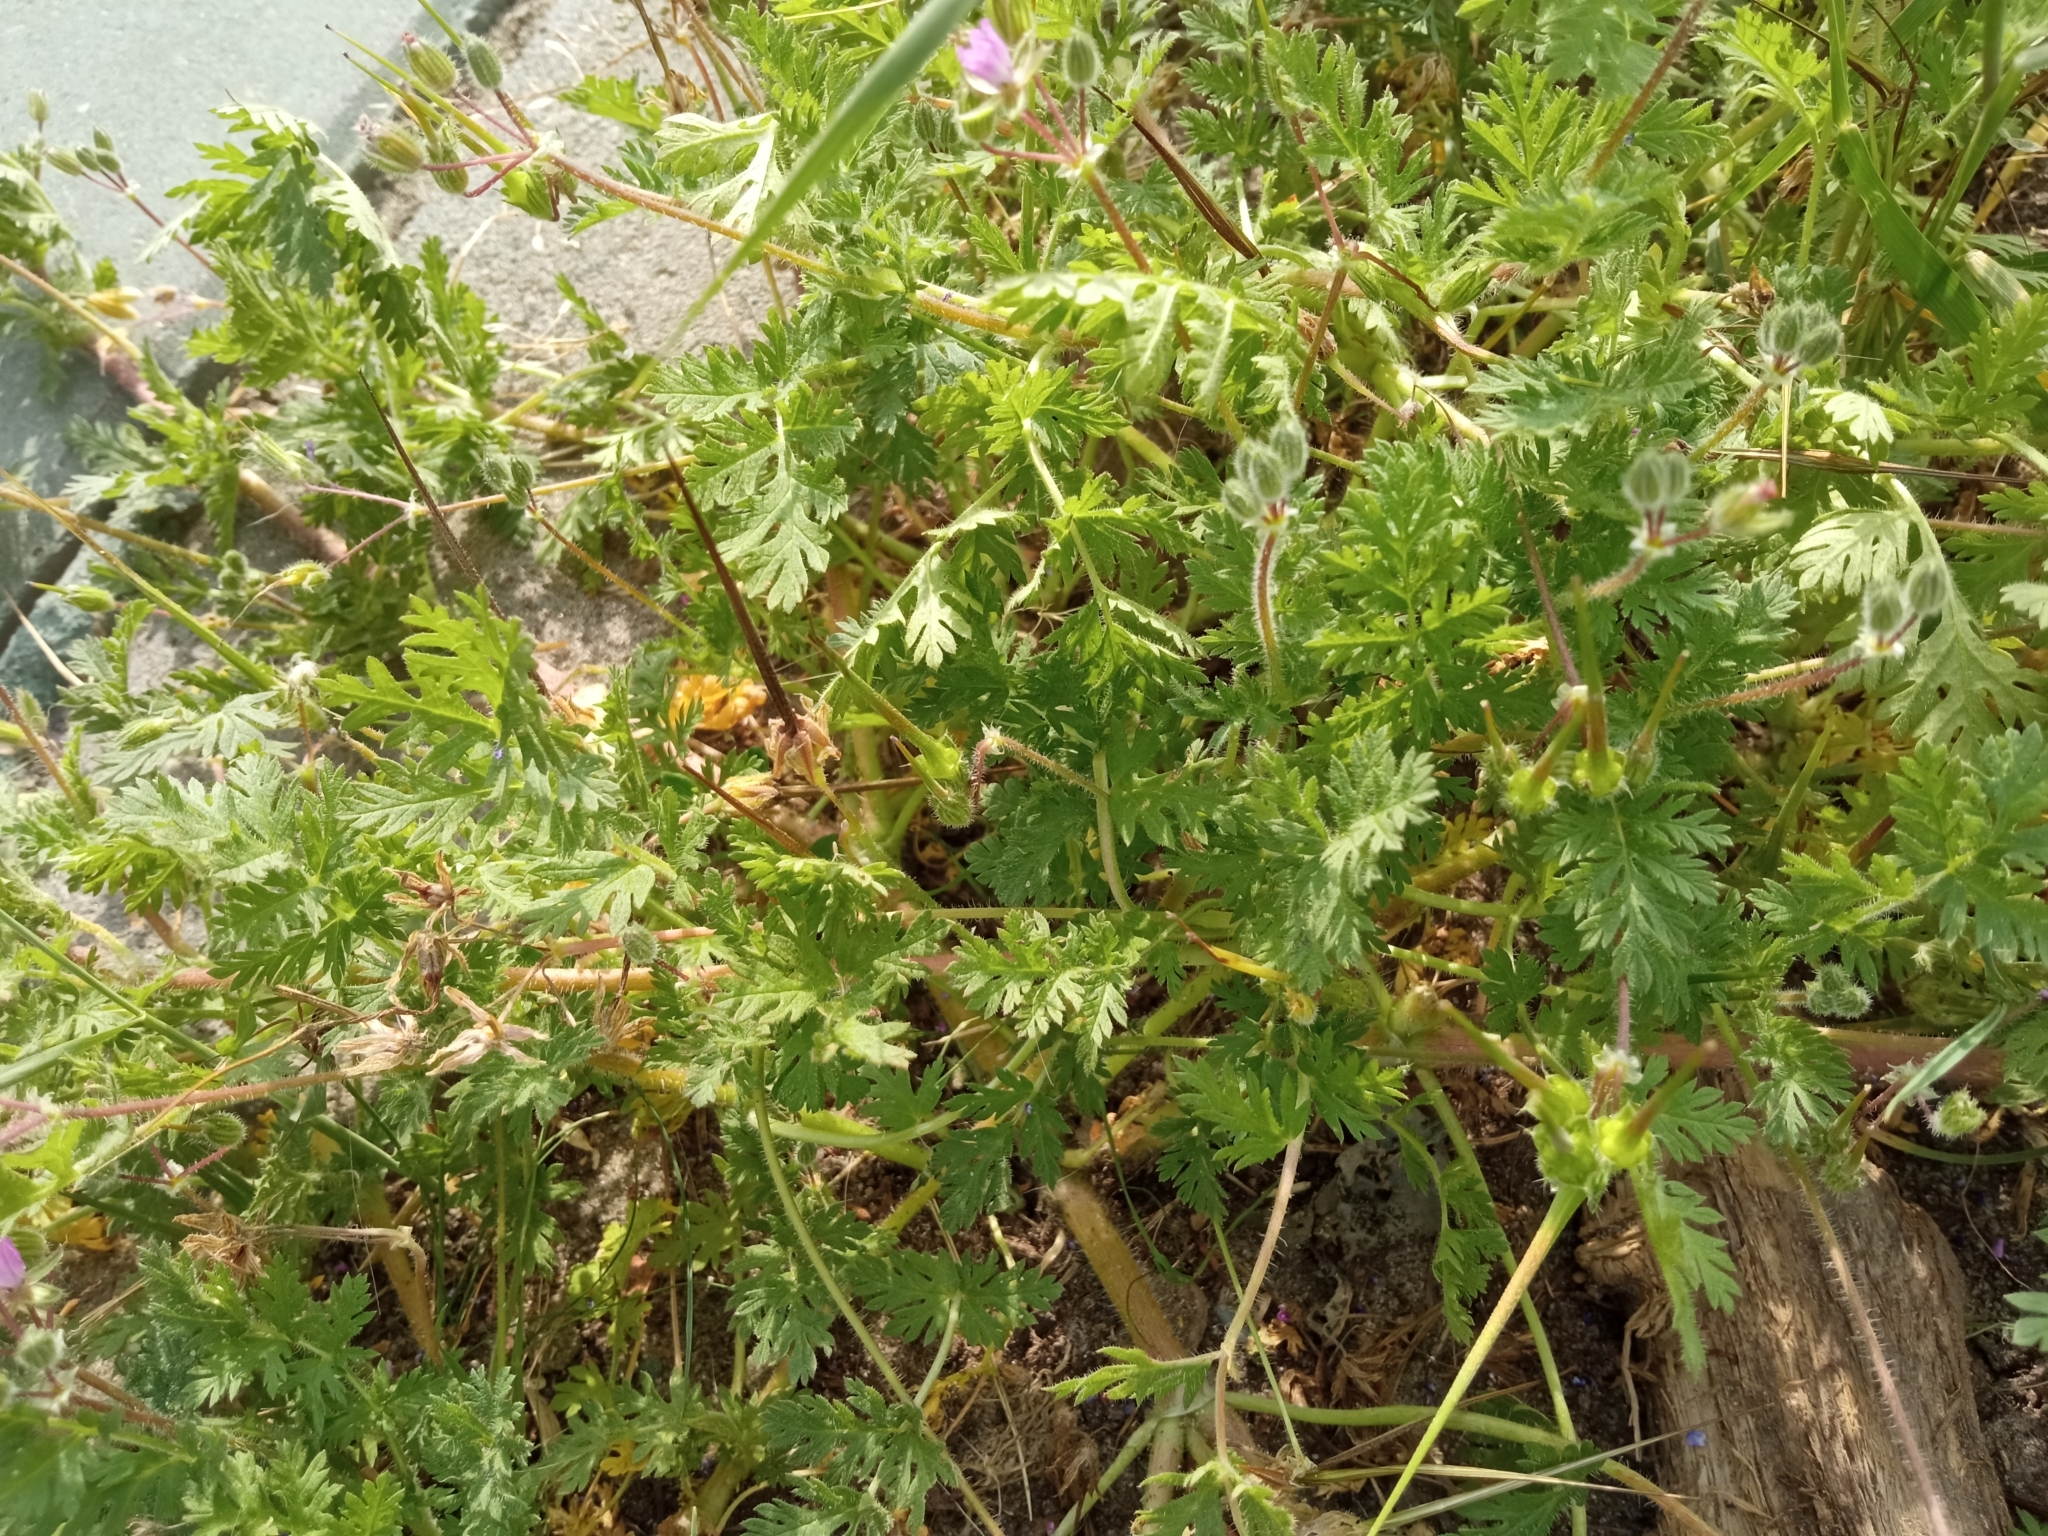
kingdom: Plantae
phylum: Tracheophyta
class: Magnoliopsida
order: Geraniales
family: Geraniaceae
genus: Erodium
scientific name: Erodium cicutarium
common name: Common stork's-bill
